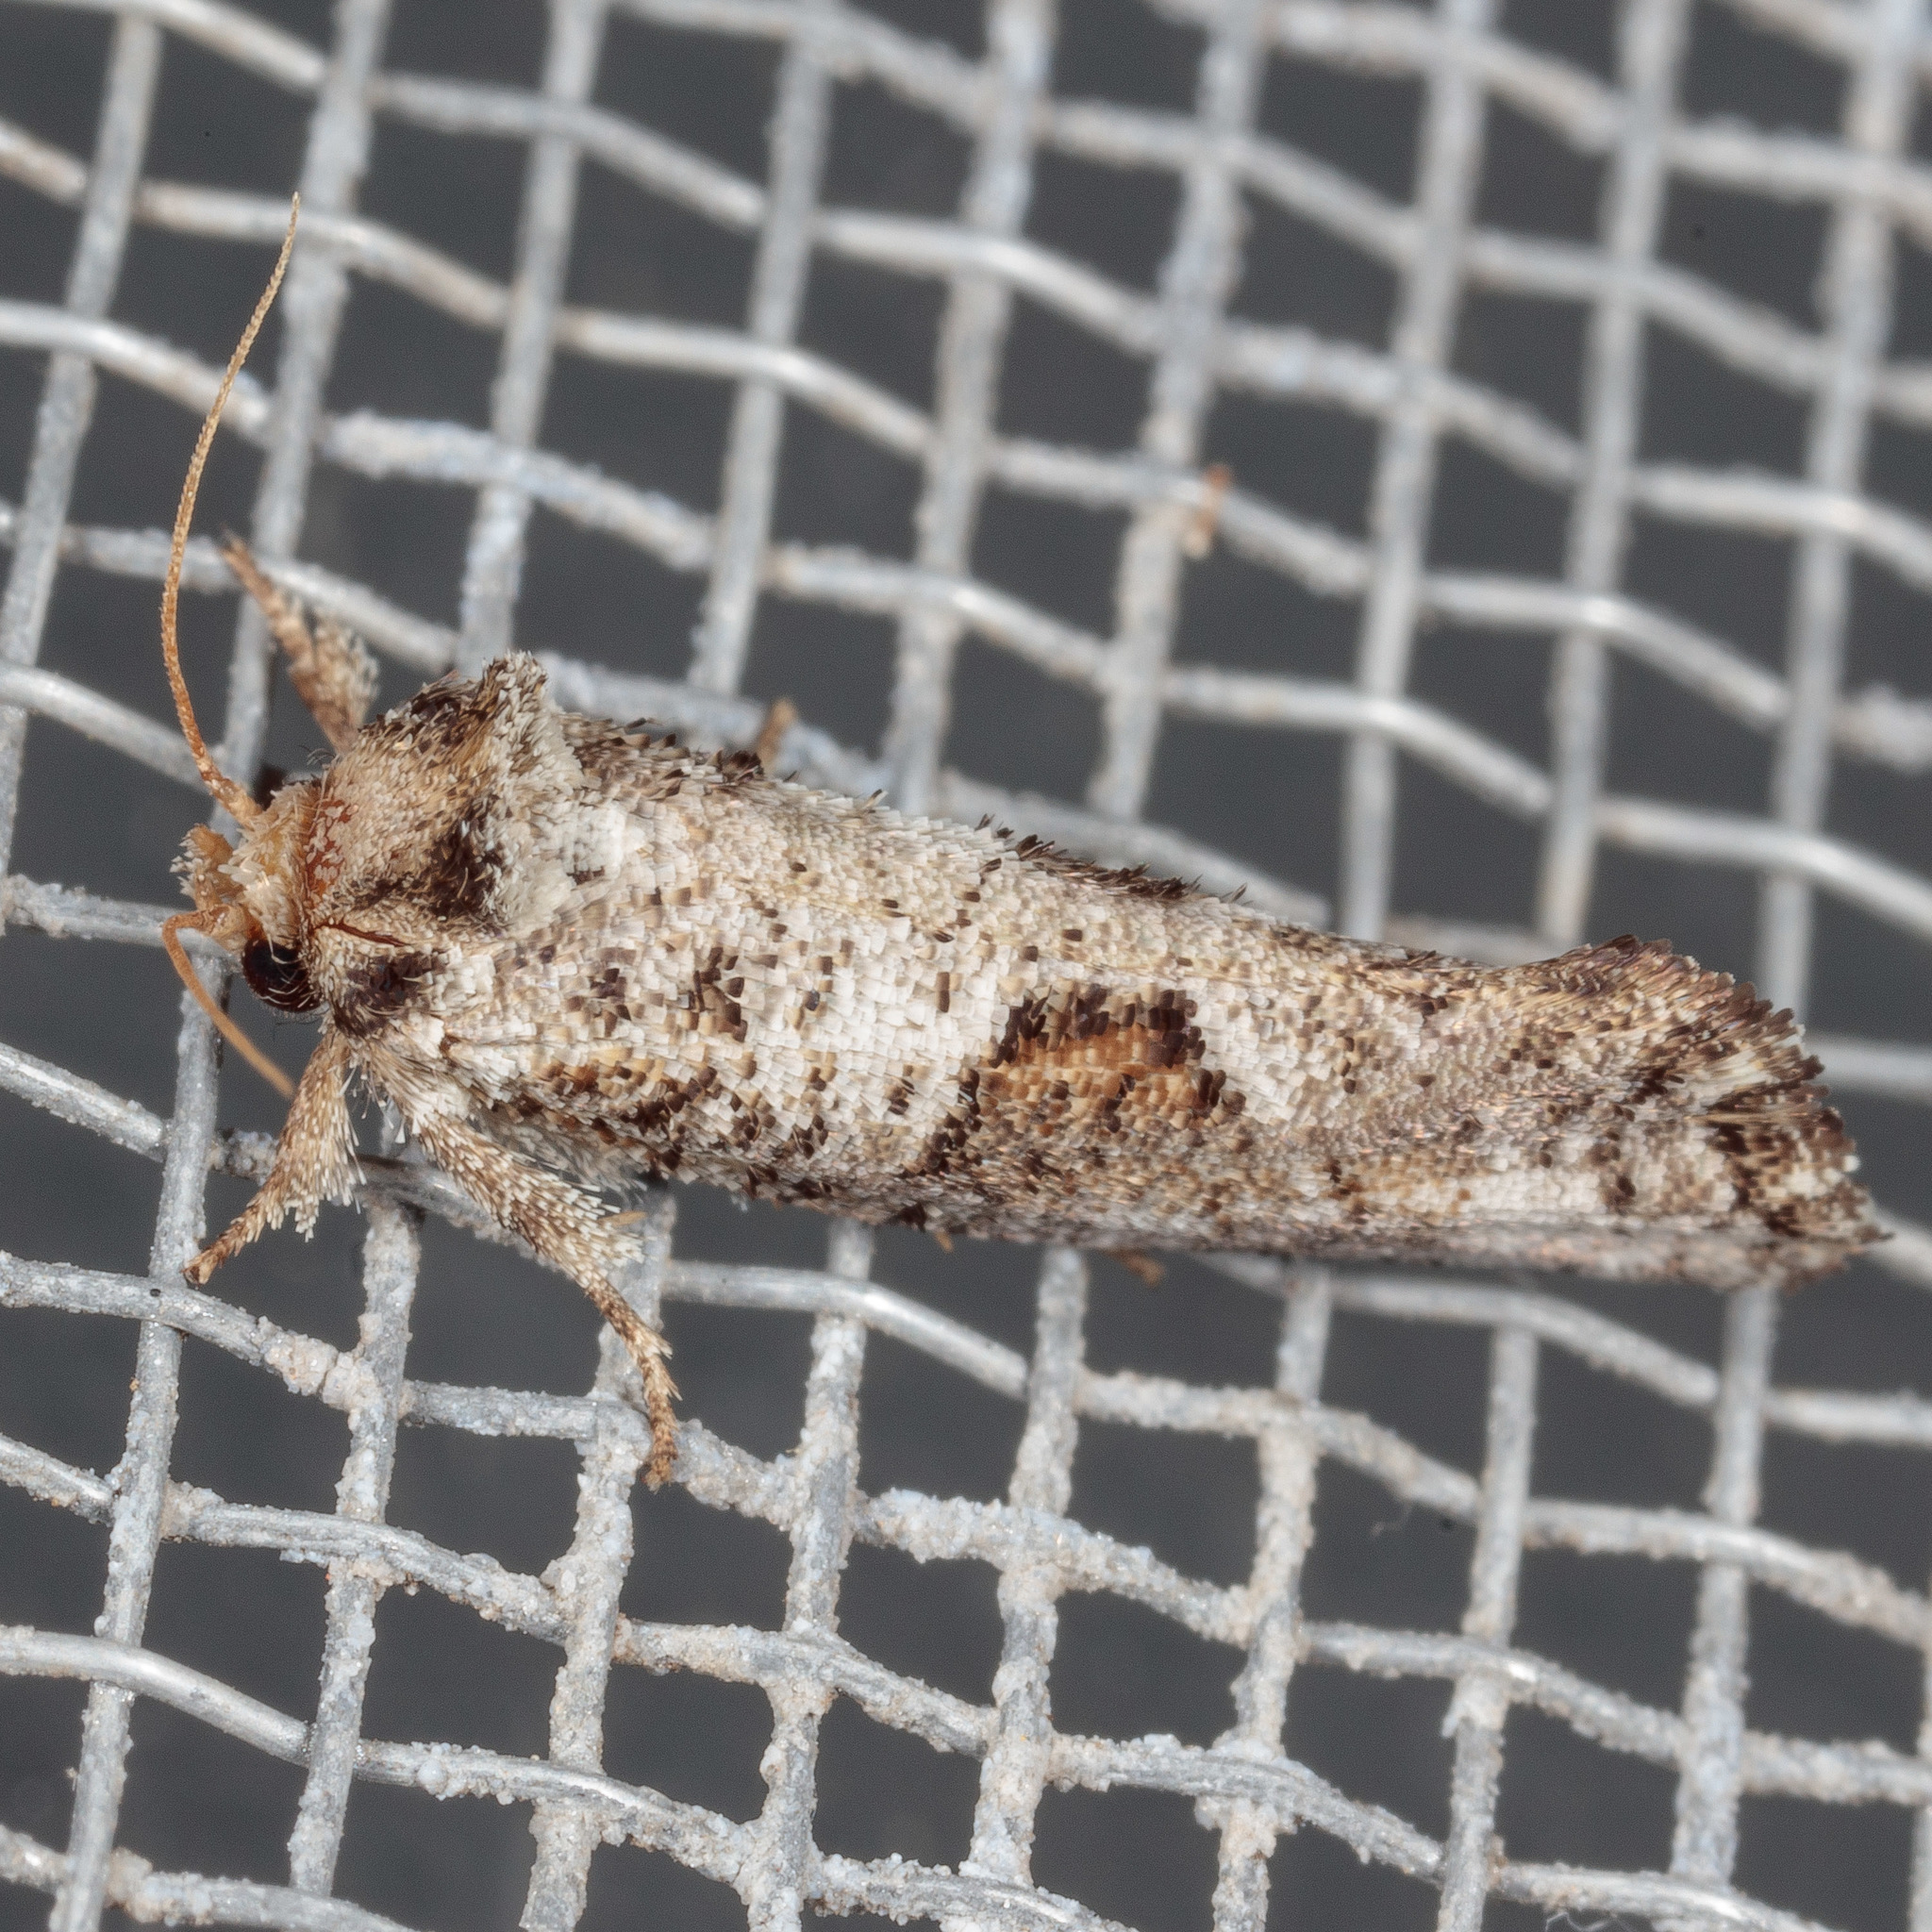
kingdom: Animalia
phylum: Arthropoda
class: Insecta
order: Lepidoptera
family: Tineidae
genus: Acrolophus
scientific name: Acrolophus piger
